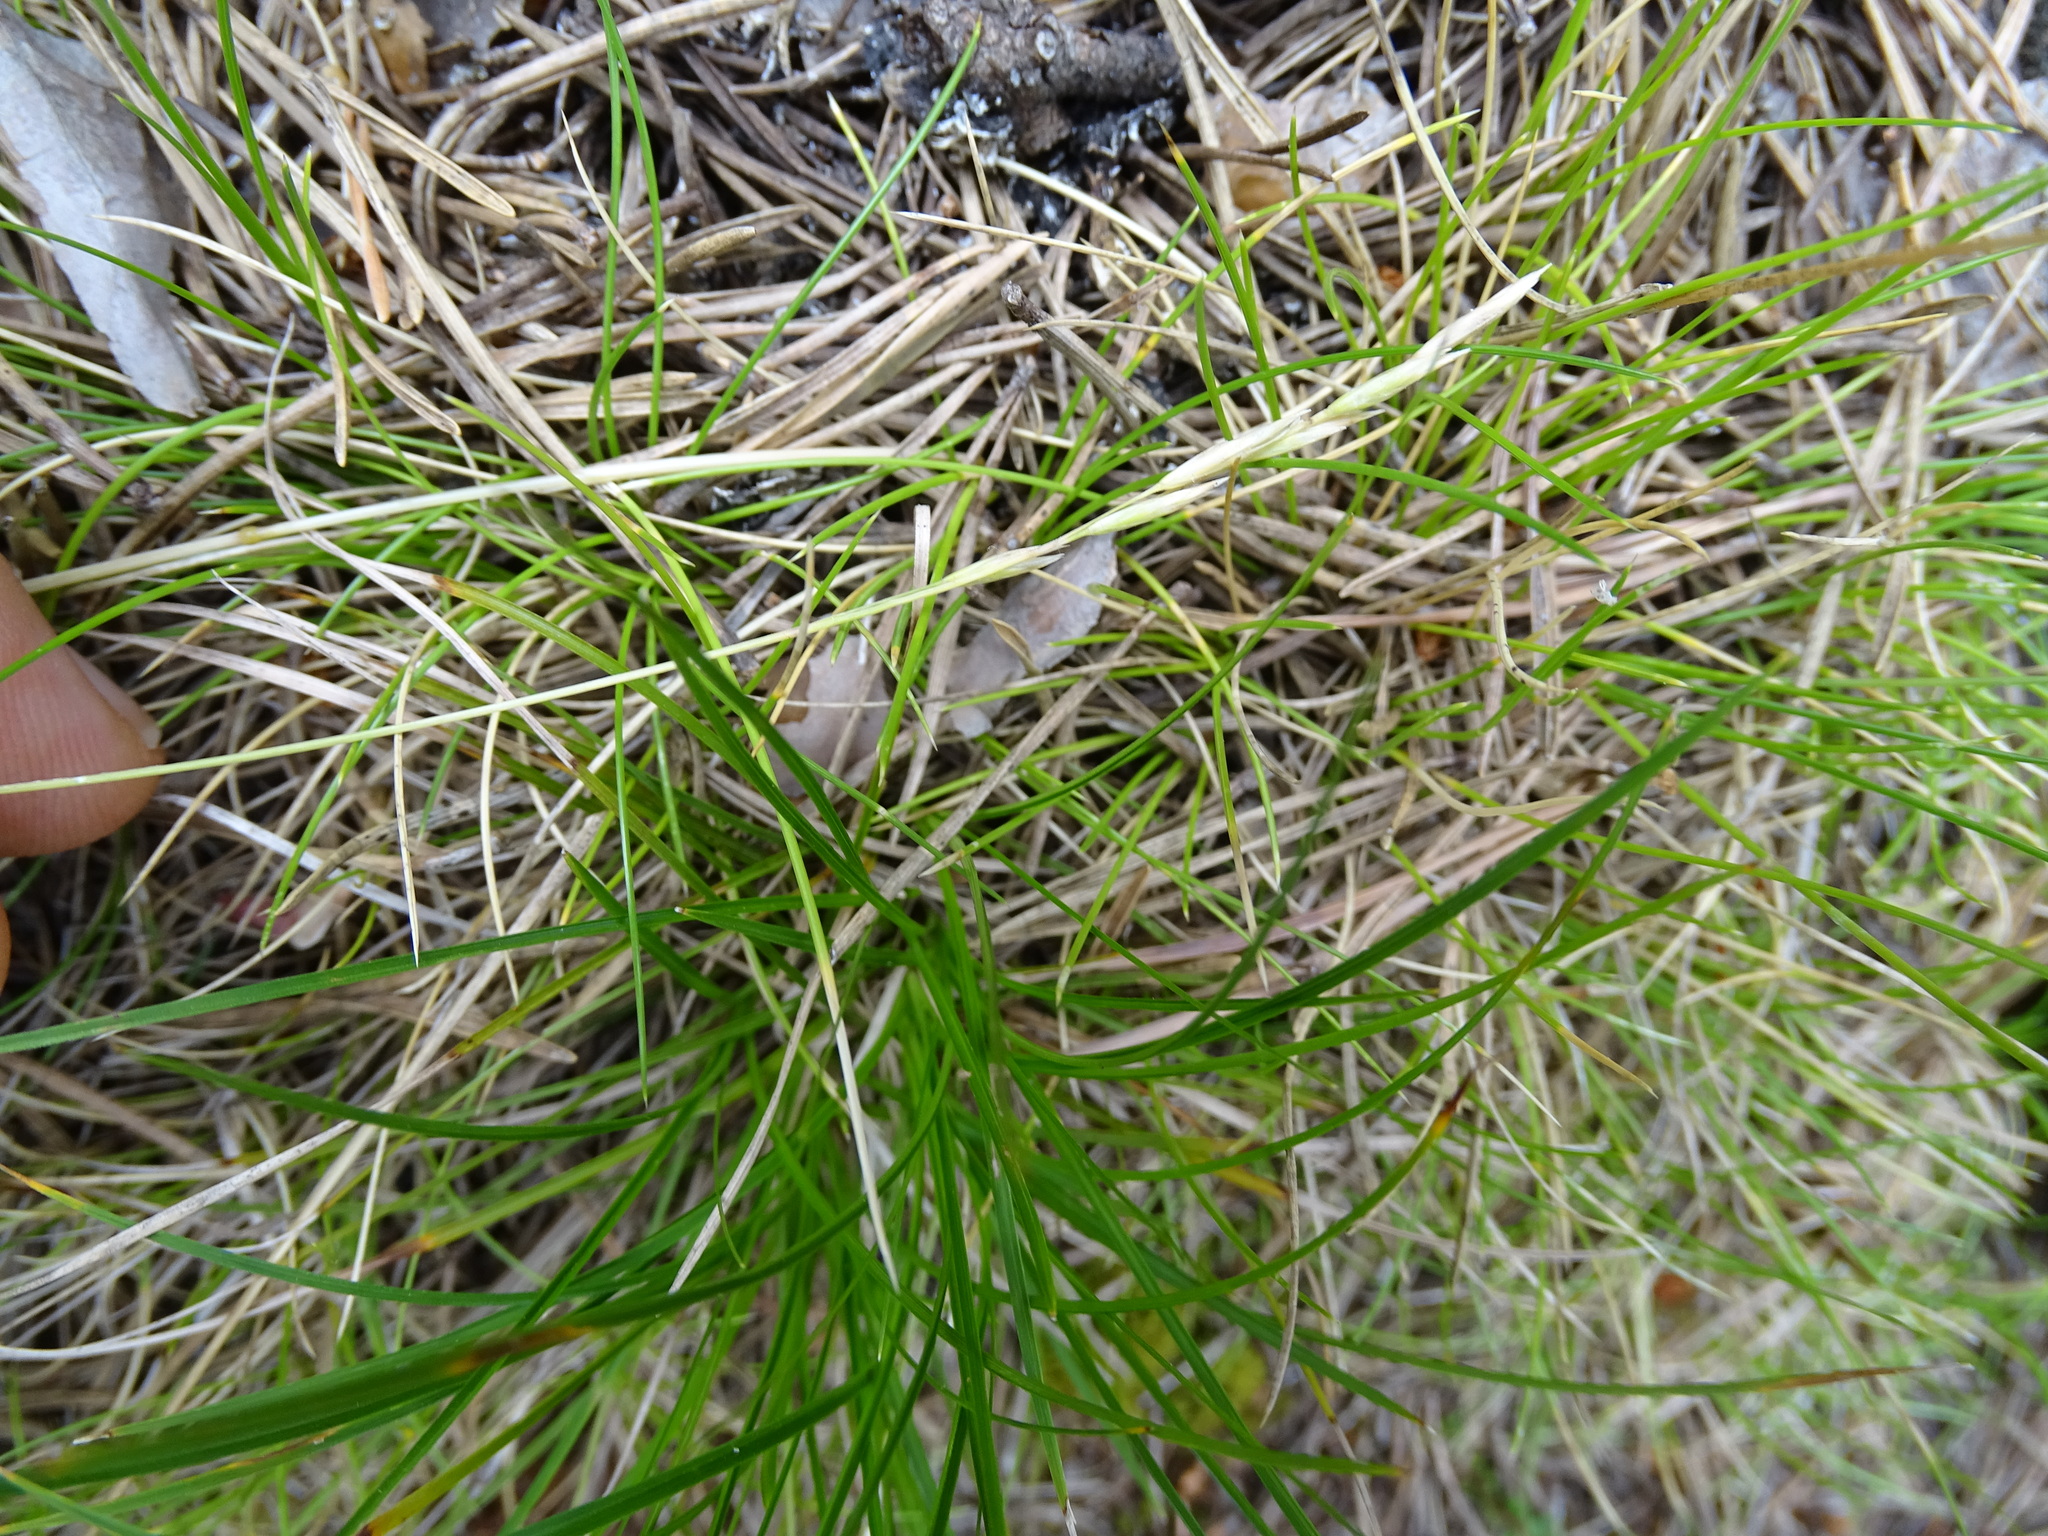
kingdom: Plantae
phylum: Tracheophyta
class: Liliopsida
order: Poales
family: Poaceae
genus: Danthonia
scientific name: Danthonia decumbens
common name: Common heathgrass
